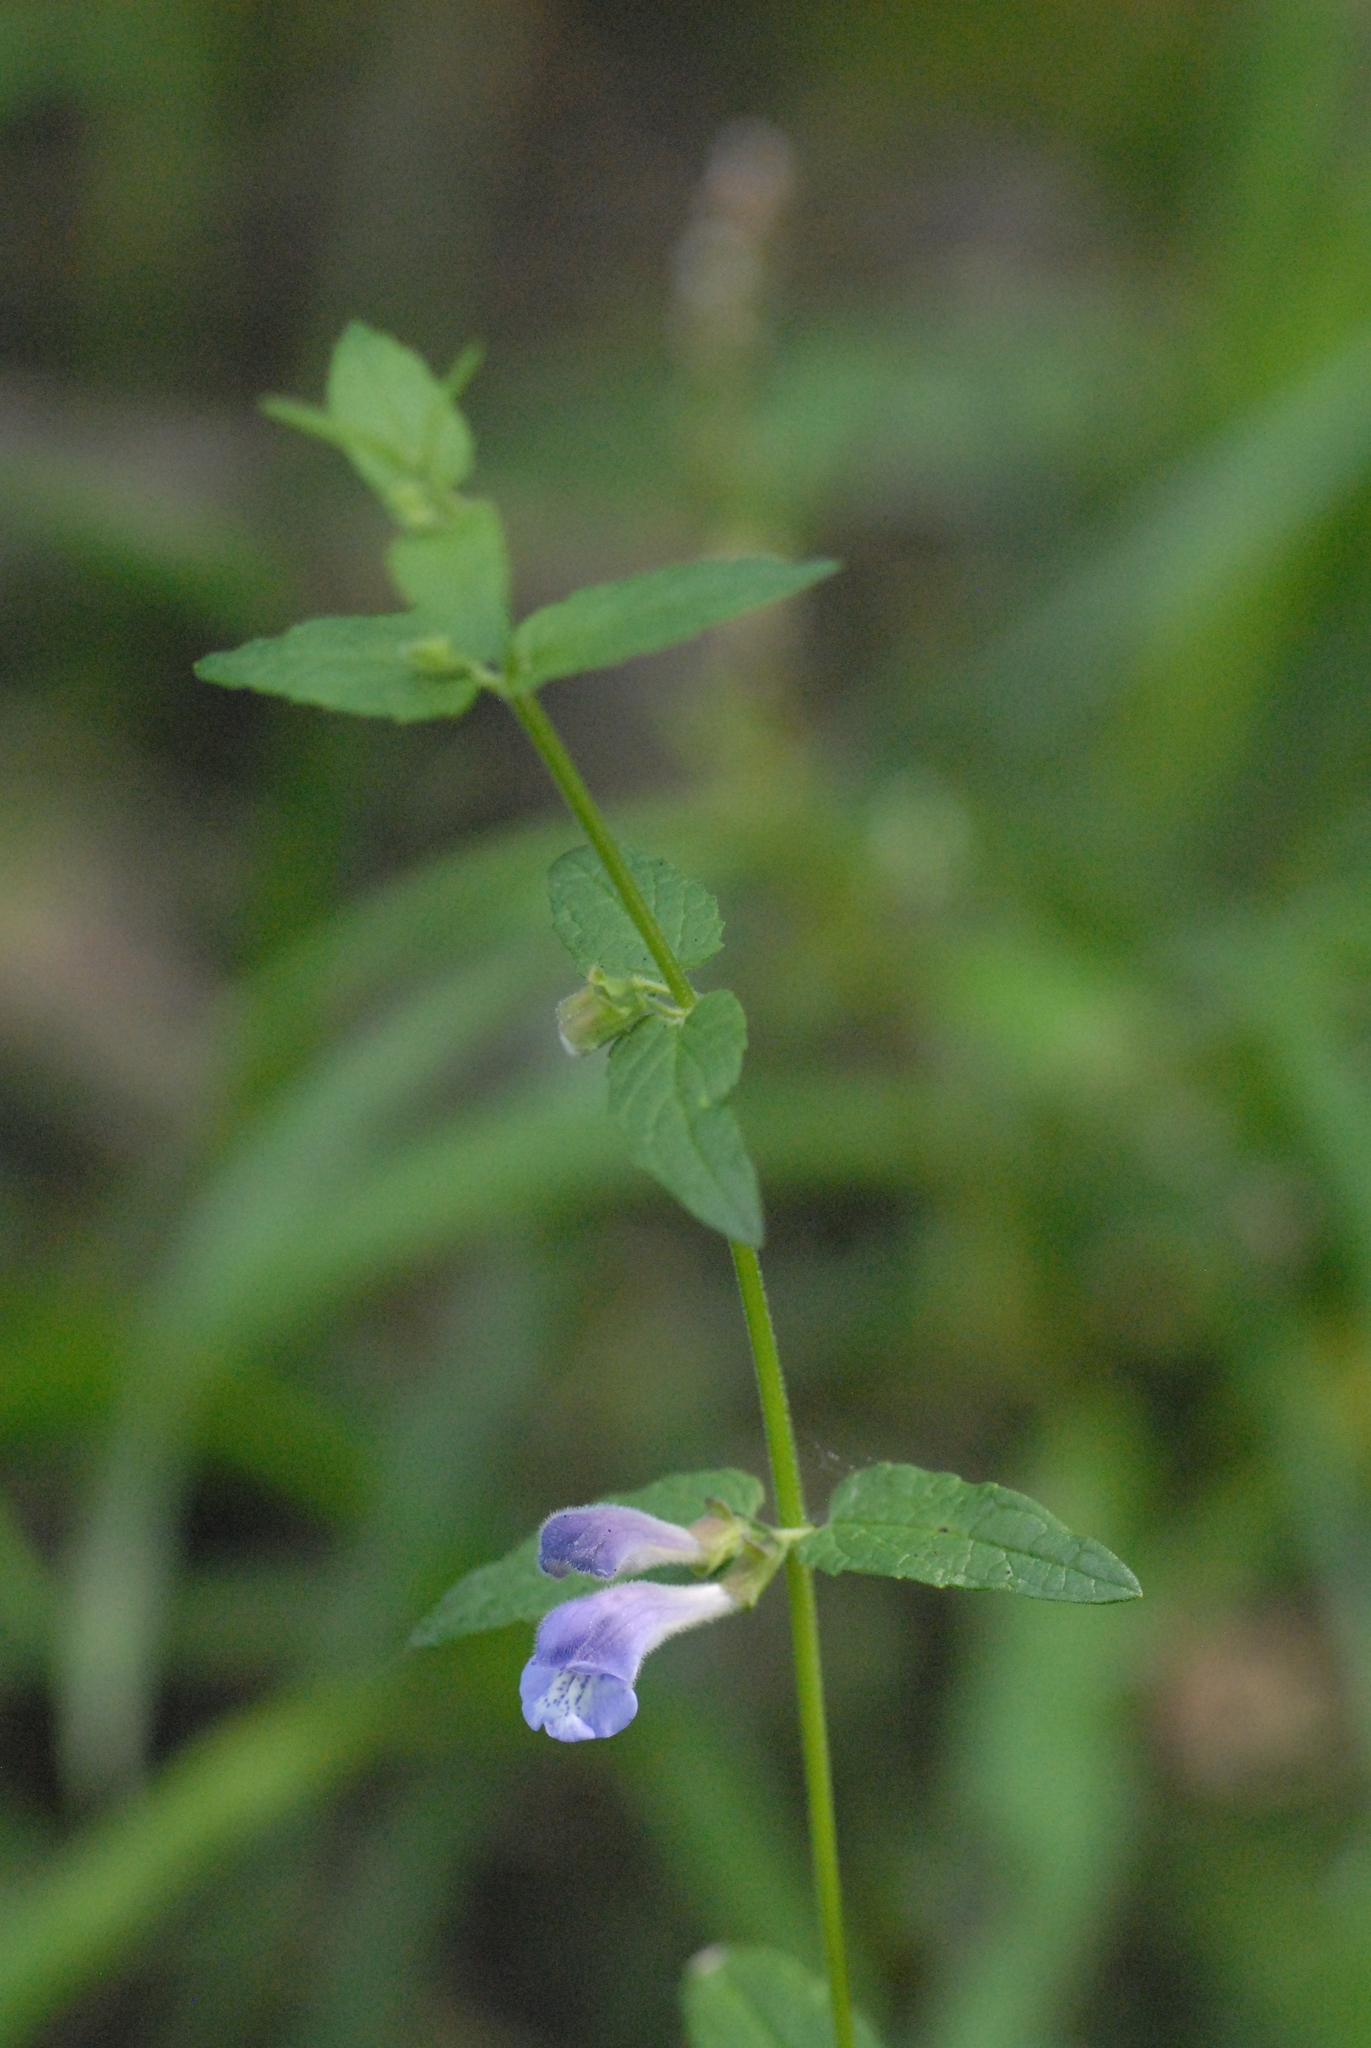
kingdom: Plantae
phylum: Tracheophyta
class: Magnoliopsida
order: Lamiales
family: Lamiaceae
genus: Scutellaria
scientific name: Scutellaria galericulata
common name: Skullcap
